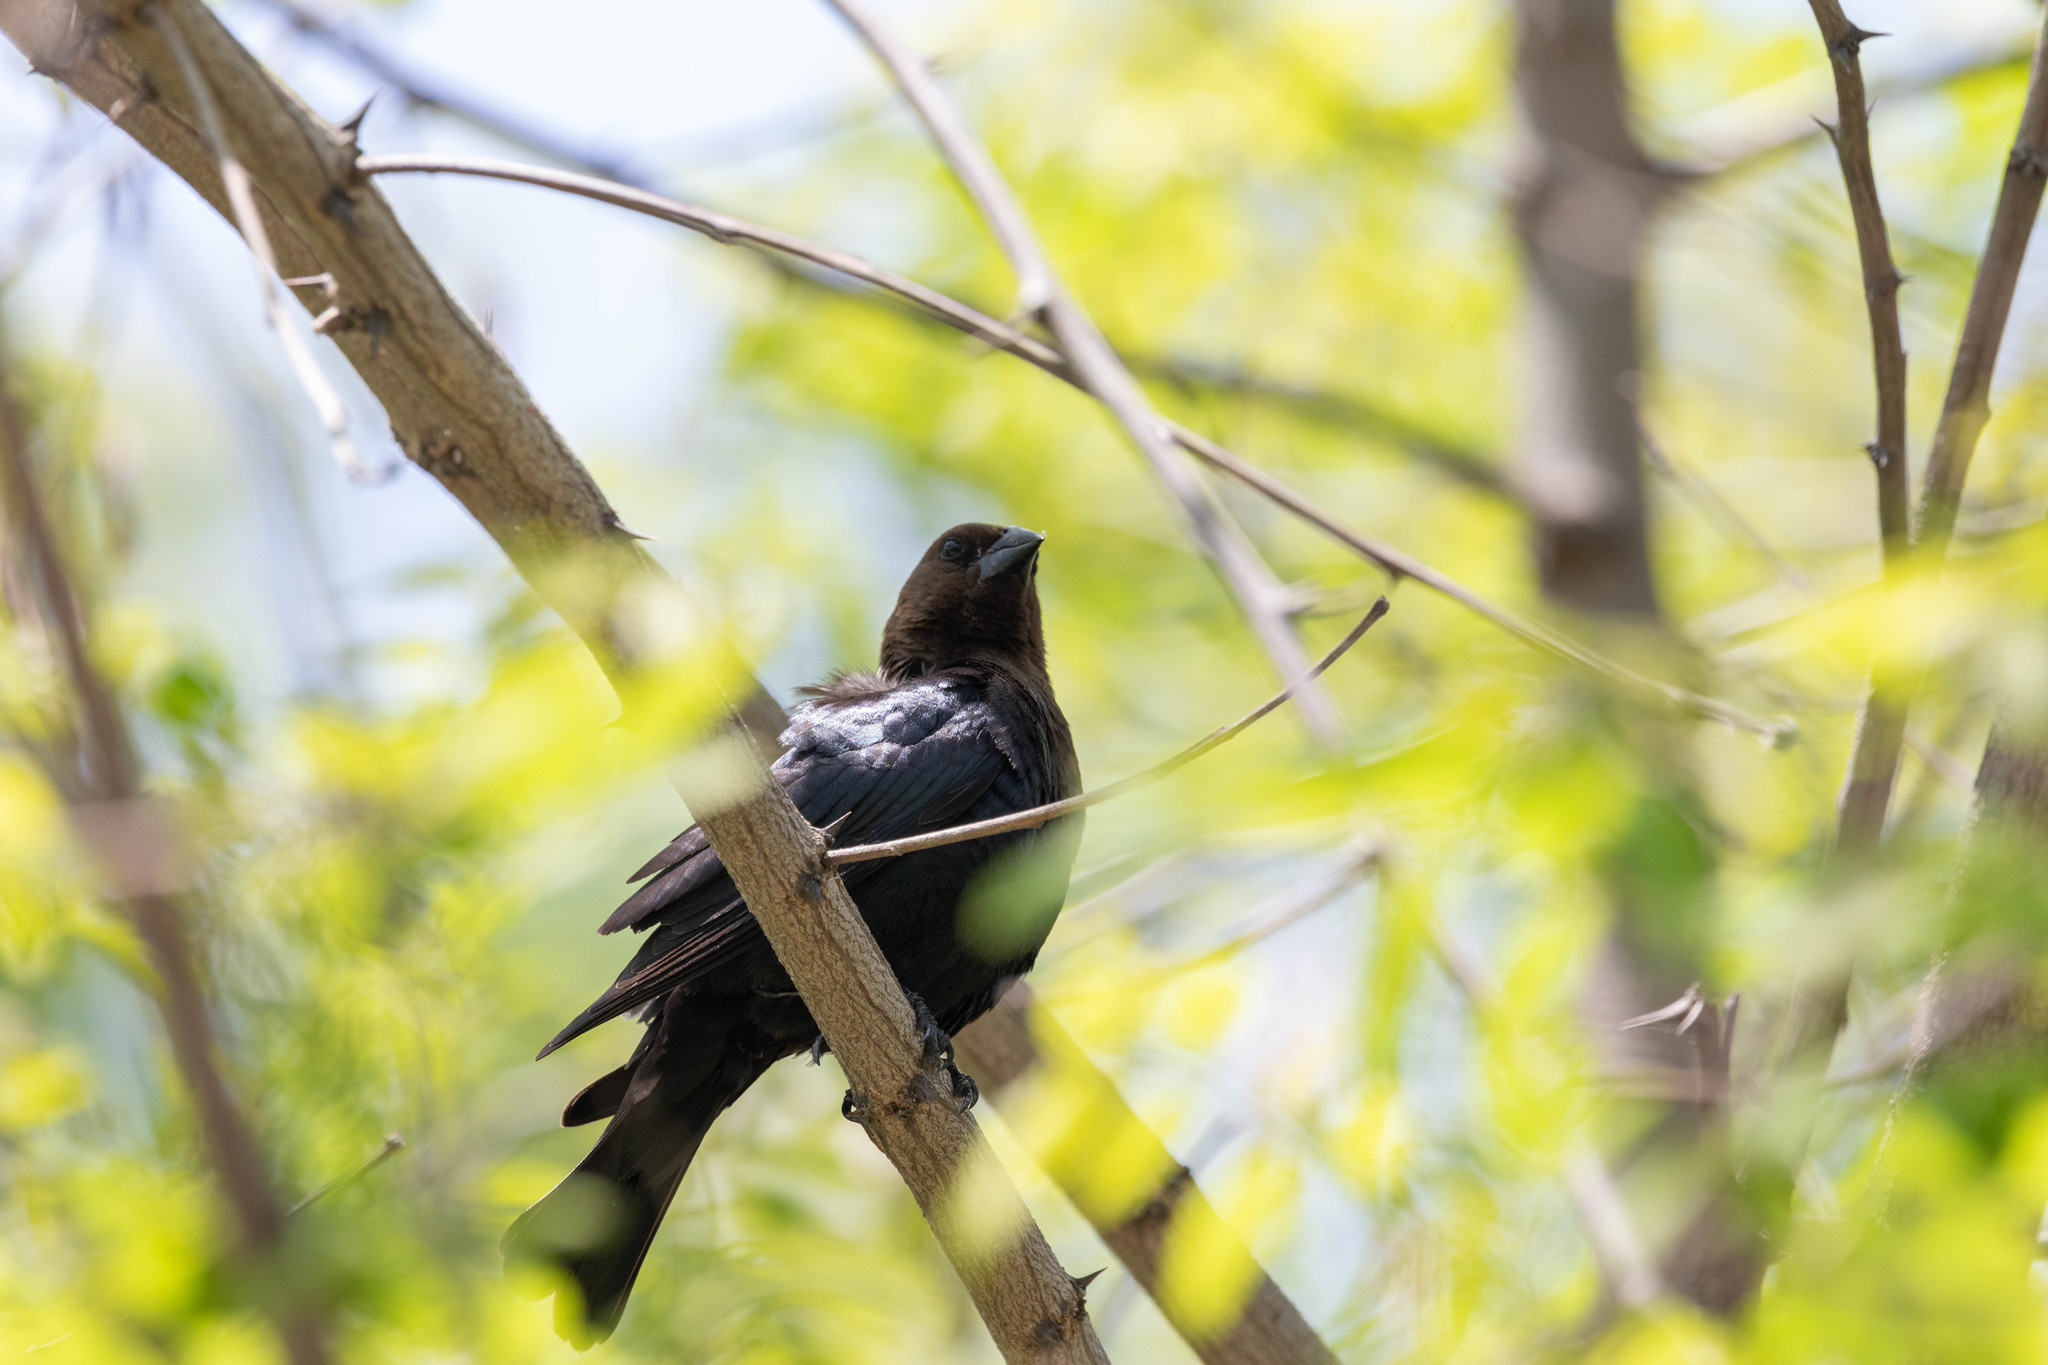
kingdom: Animalia
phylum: Chordata
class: Aves
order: Passeriformes
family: Icteridae
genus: Molothrus
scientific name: Molothrus ater
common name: Brown-headed cowbird
